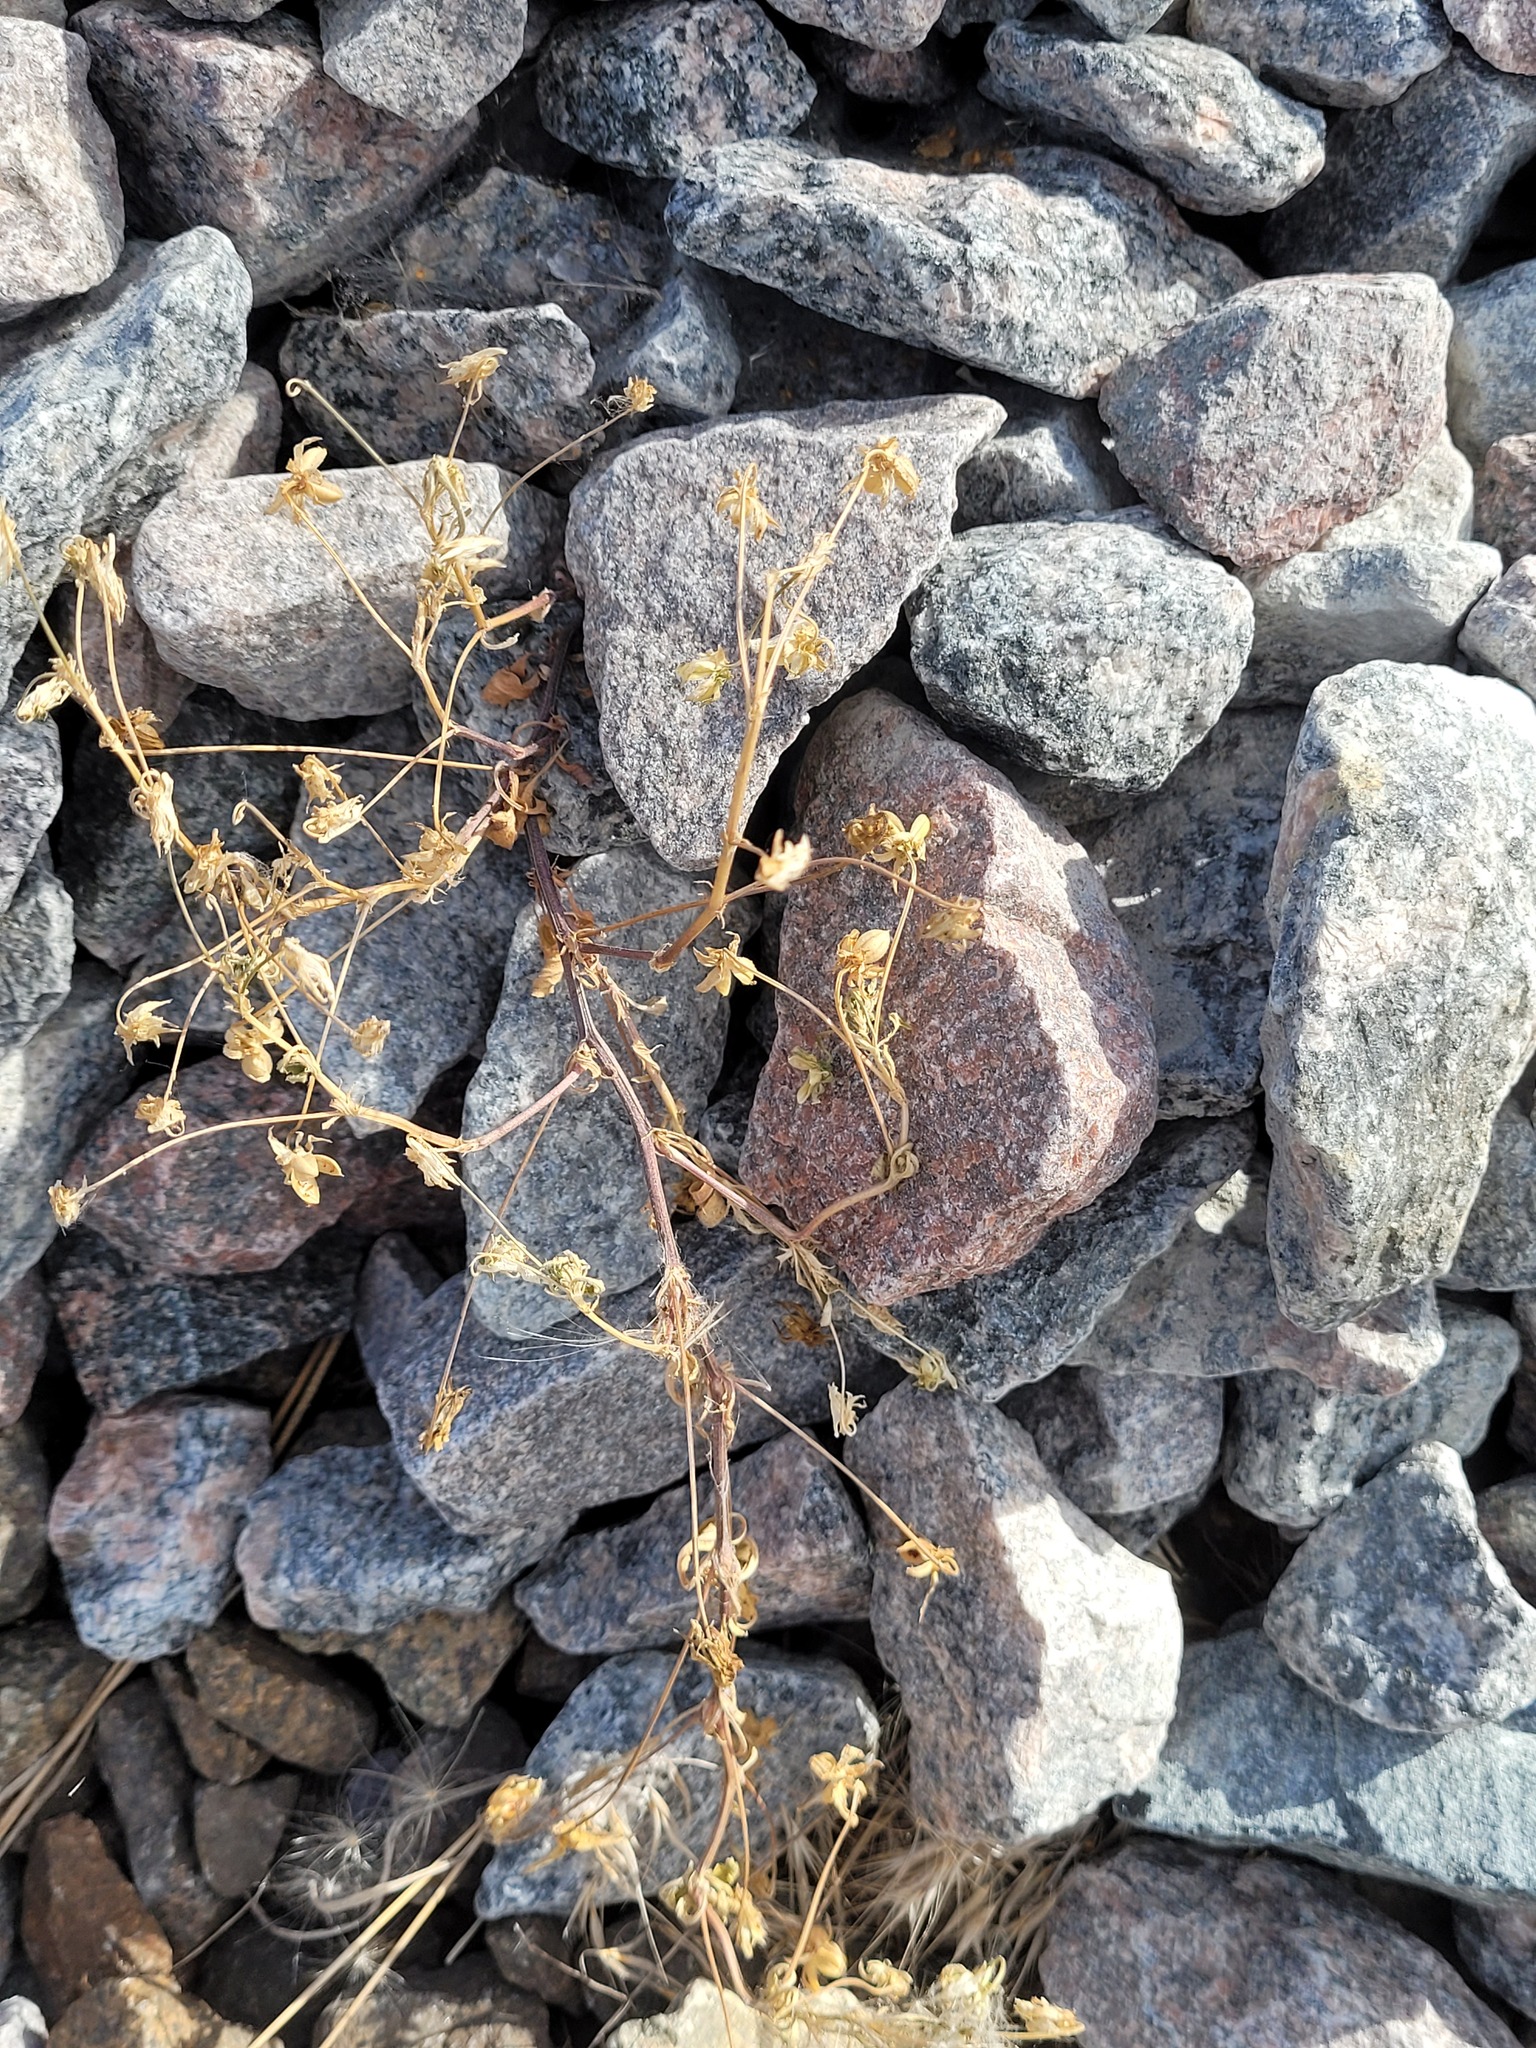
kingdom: Plantae
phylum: Tracheophyta
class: Magnoliopsida
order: Malpighiales
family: Violaceae
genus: Viola
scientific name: Viola arvensis
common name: Field pansy
